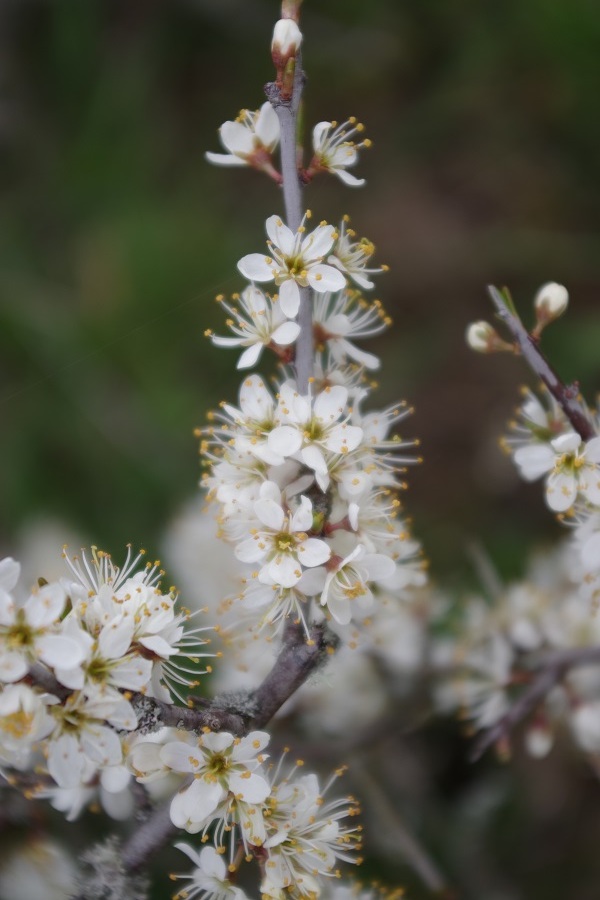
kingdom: Plantae
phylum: Tracheophyta
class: Magnoliopsida
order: Rosales
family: Rosaceae
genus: Prunus
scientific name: Prunus spinosa
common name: Blackthorn
